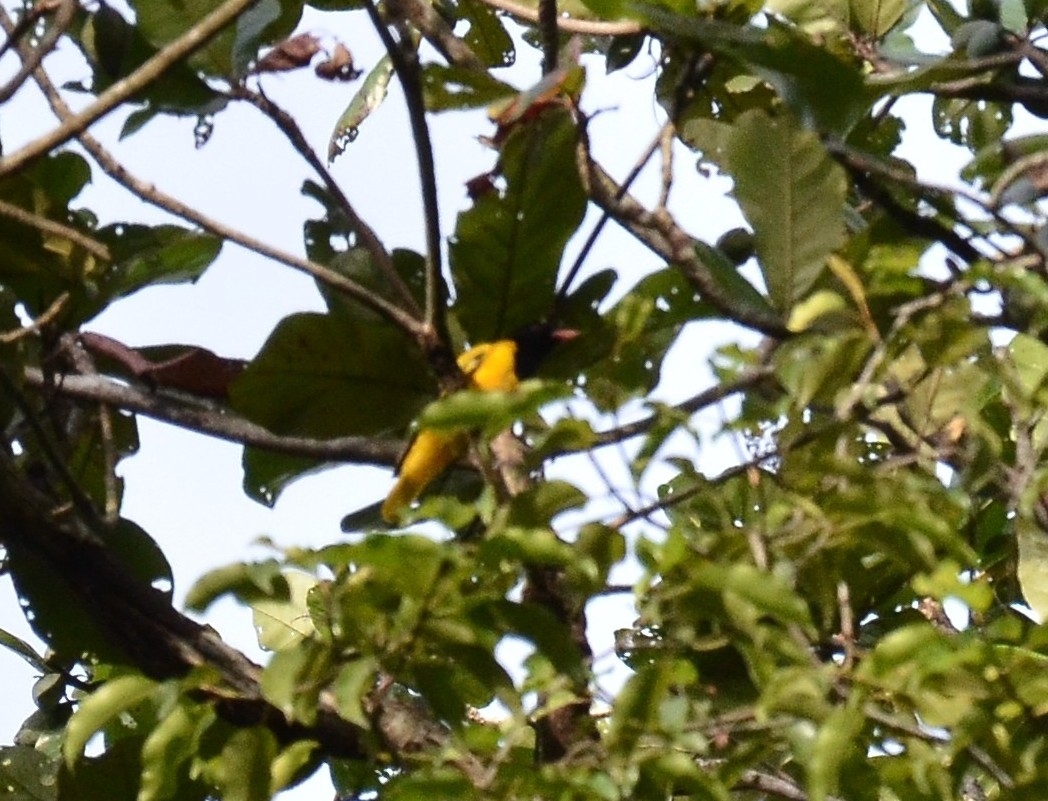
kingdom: Animalia
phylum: Chordata
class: Aves
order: Passeriformes
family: Oriolidae
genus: Oriolus
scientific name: Oriolus xanthornus
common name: Black-hooded oriole
